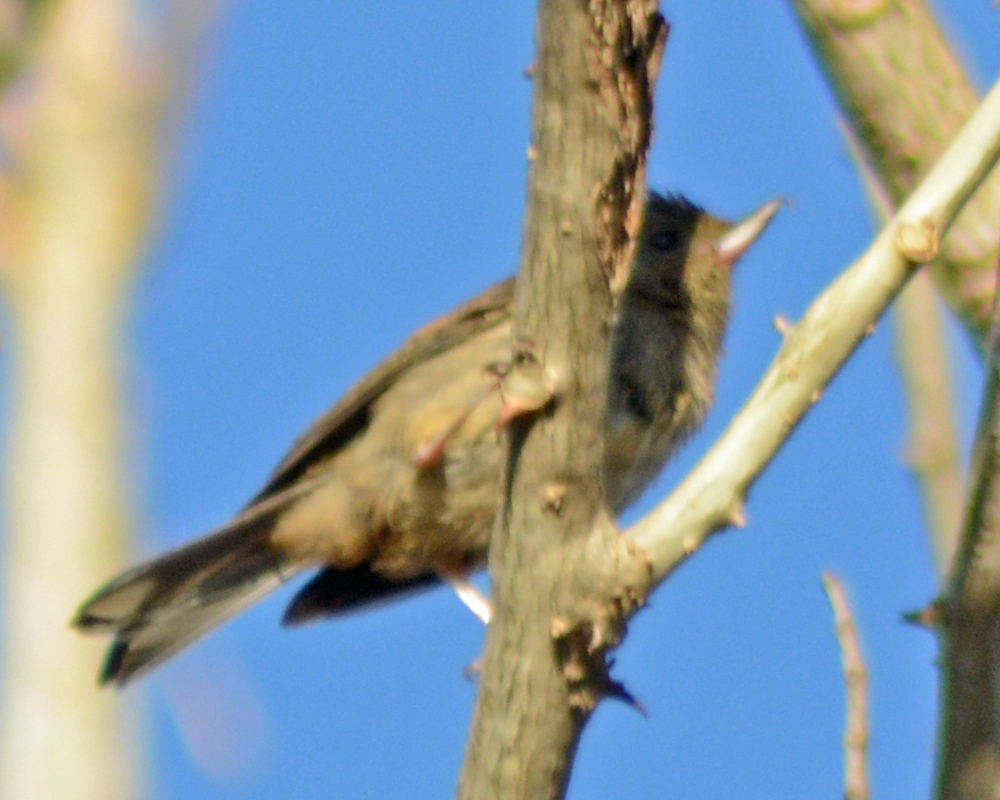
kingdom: Animalia
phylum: Chordata
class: Aves
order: Passeriformes
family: Thraupidae
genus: Diglossa
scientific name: Diglossa baritula
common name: Cinnamon-bellied flowerpiercer
